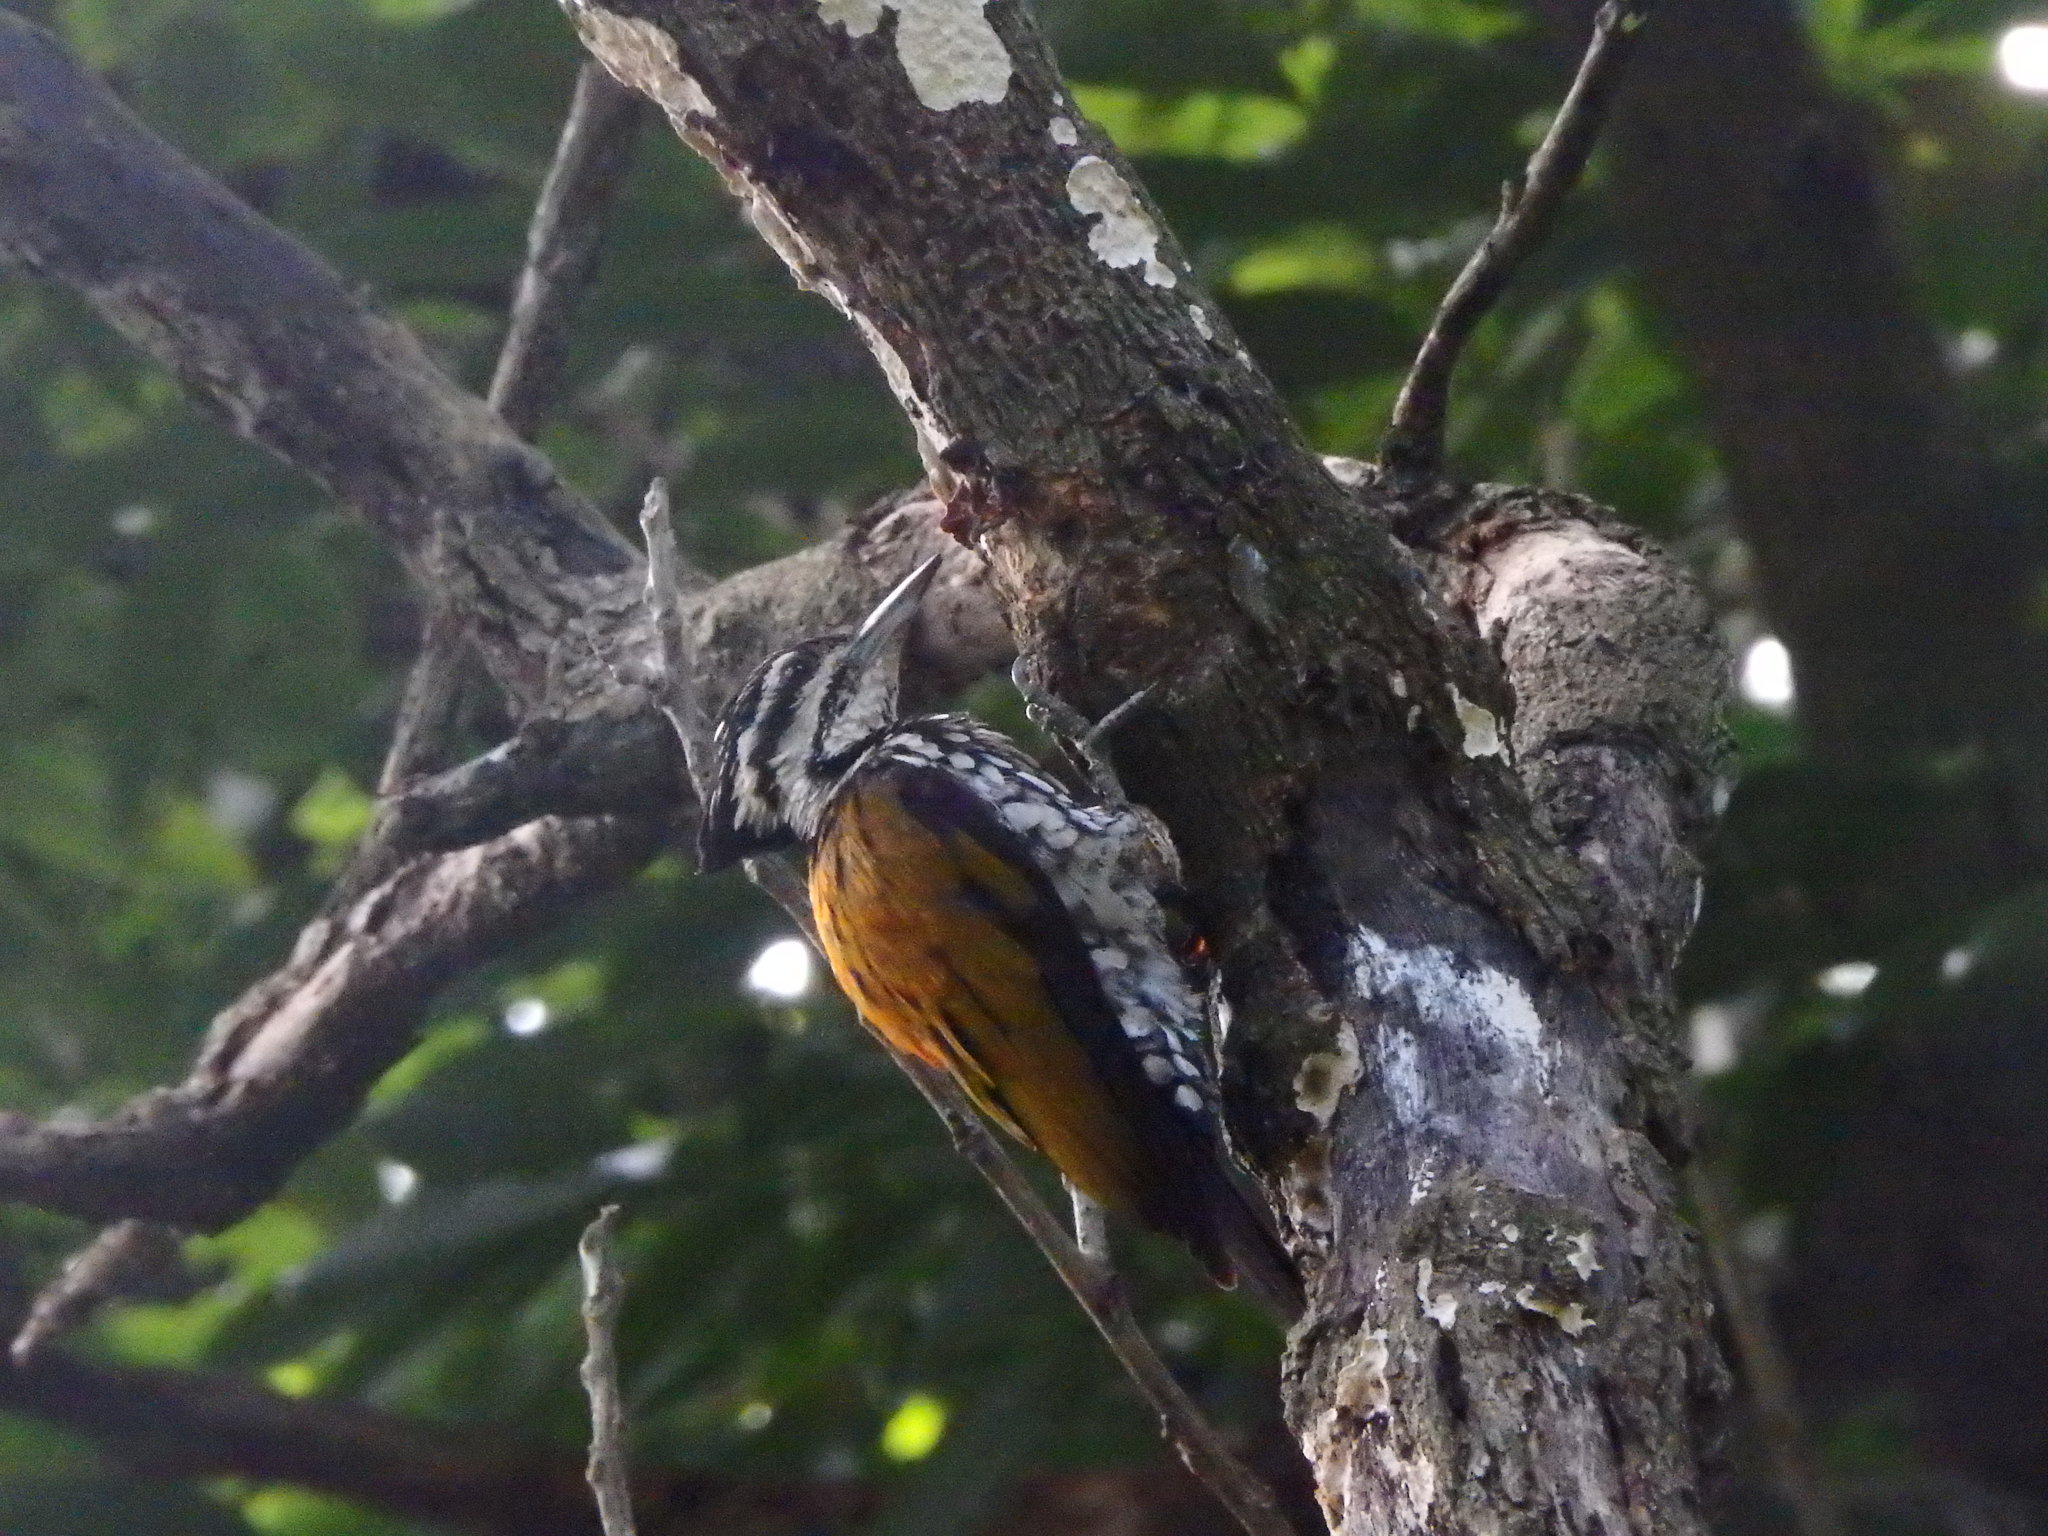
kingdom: Animalia
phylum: Chordata
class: Aves
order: Piciformes
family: Picidae
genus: Dinopium
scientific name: Dinopium javanense
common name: Common flameback
